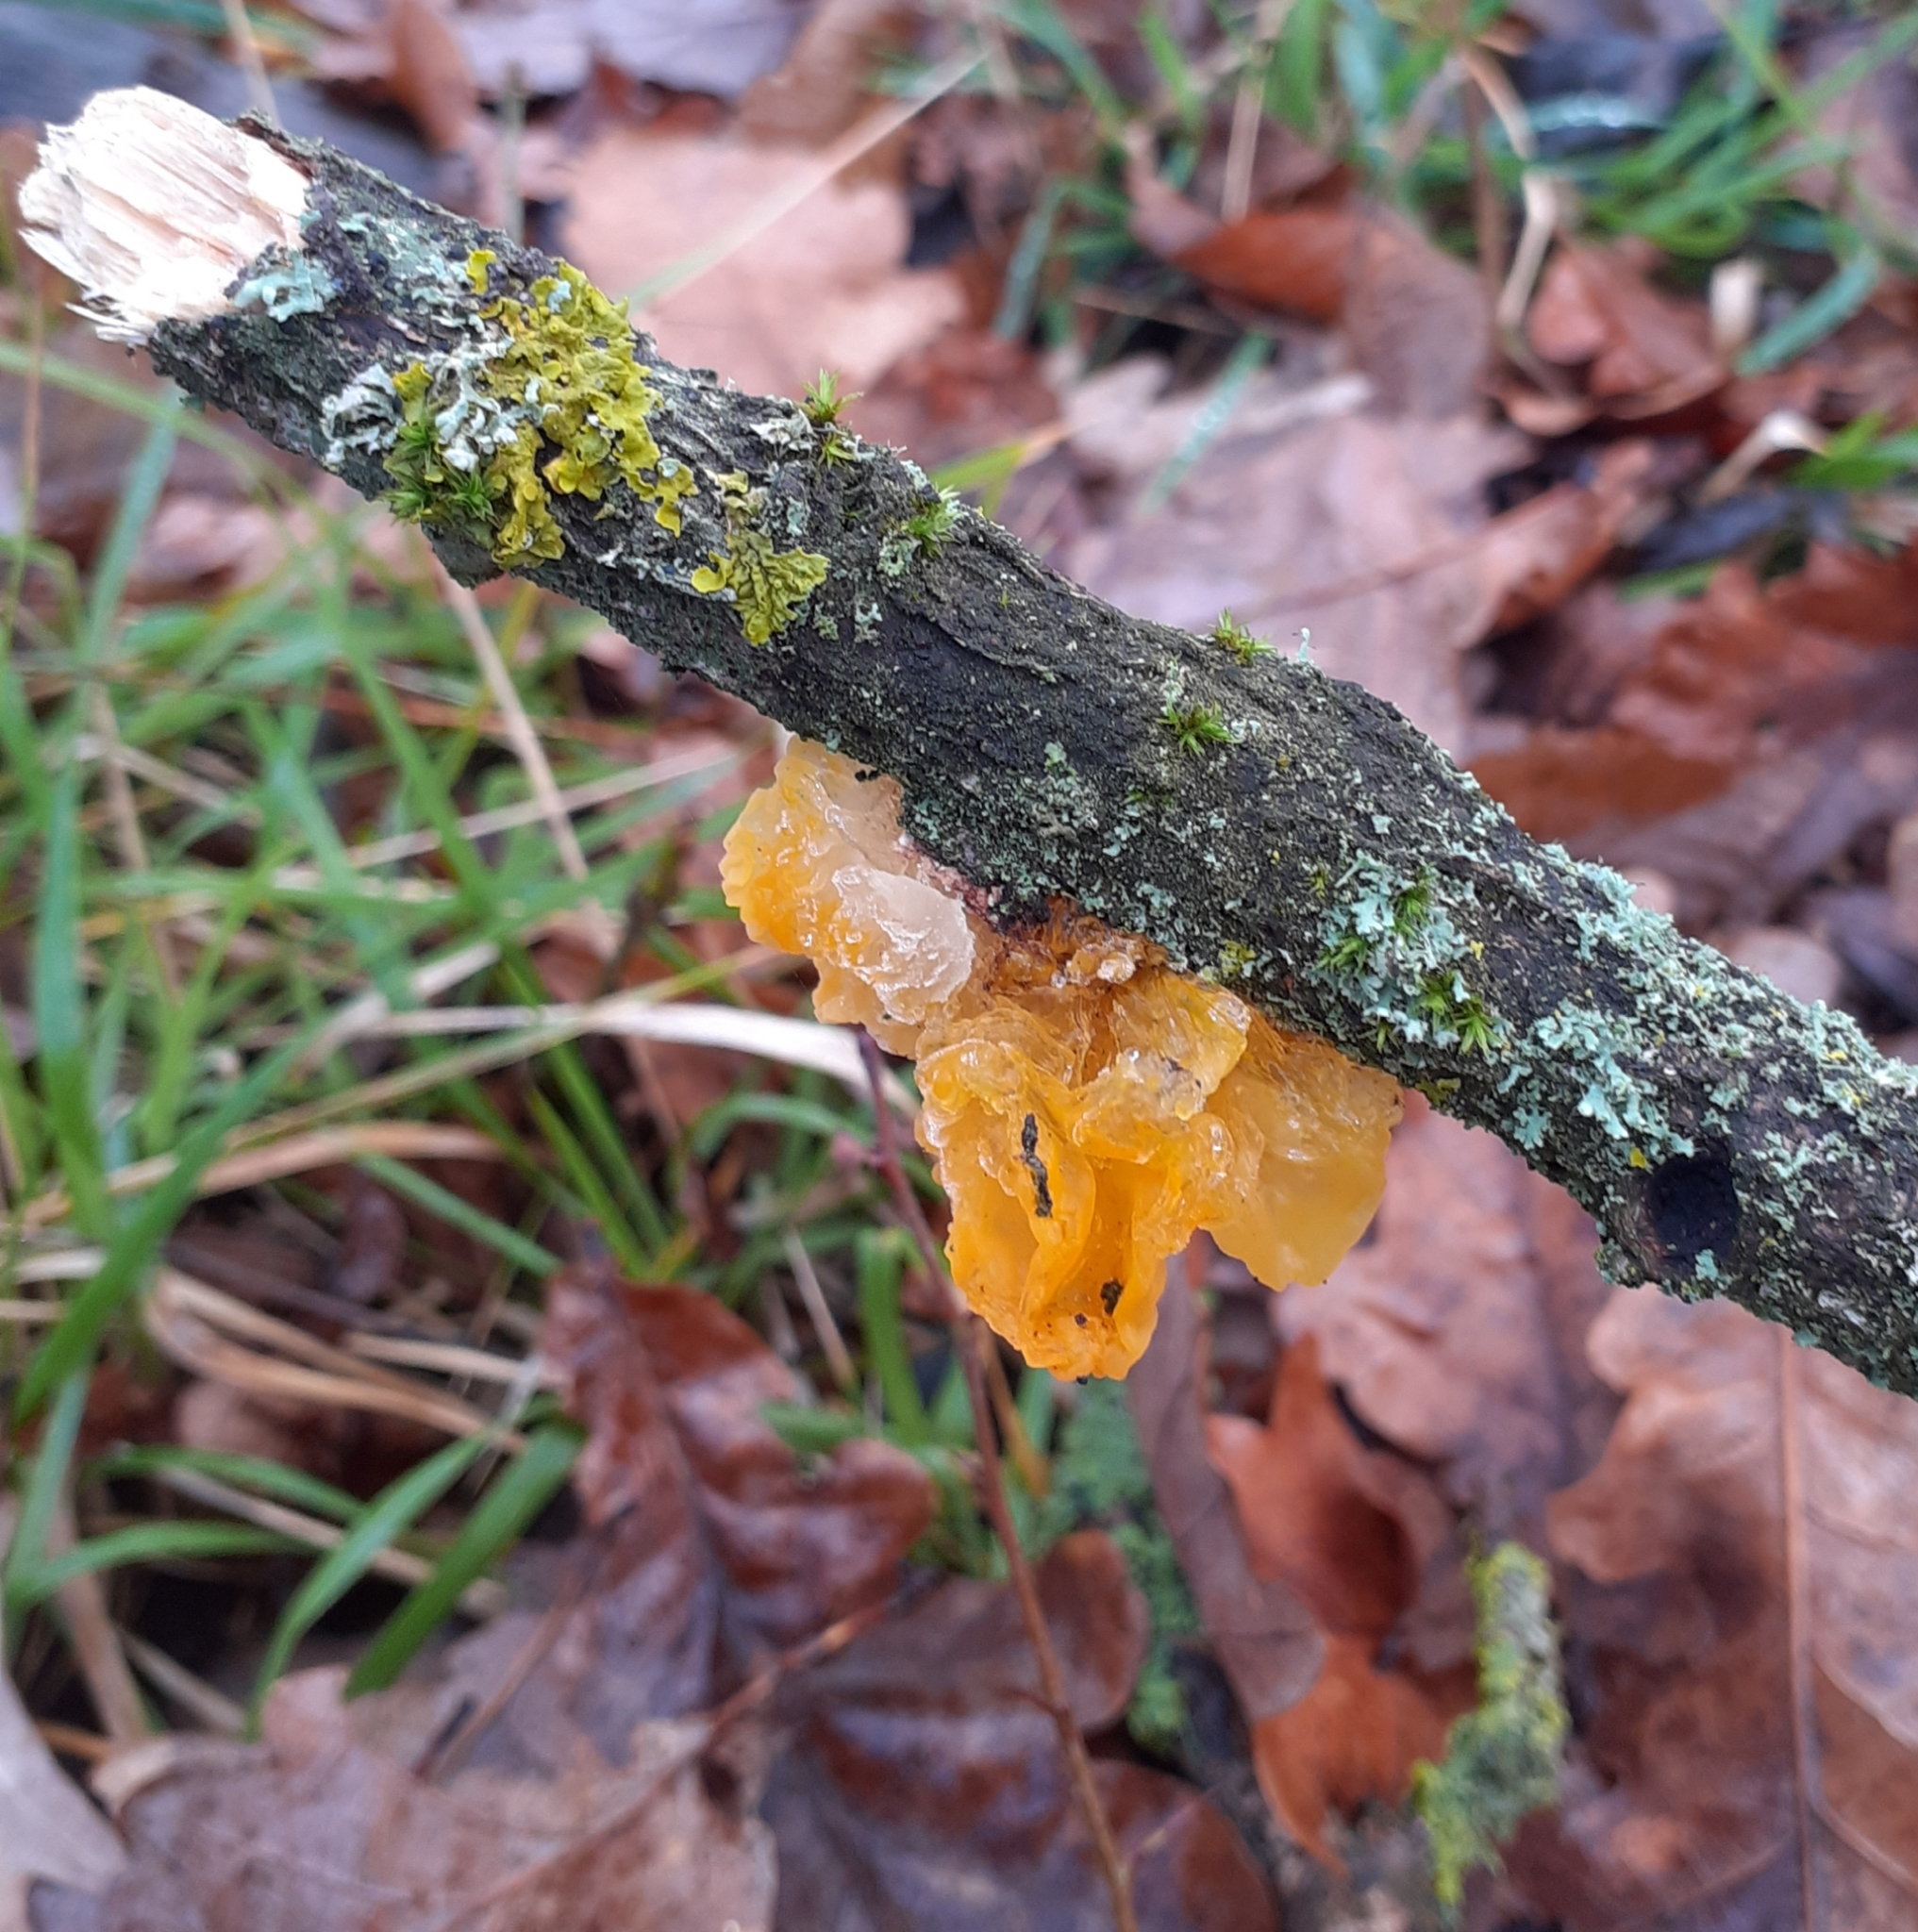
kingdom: Fungi
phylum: Basidiomycota
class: Tremellomycetes
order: Tremellales
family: Tremellaceae
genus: Tremella
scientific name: Tremella mesenterica
